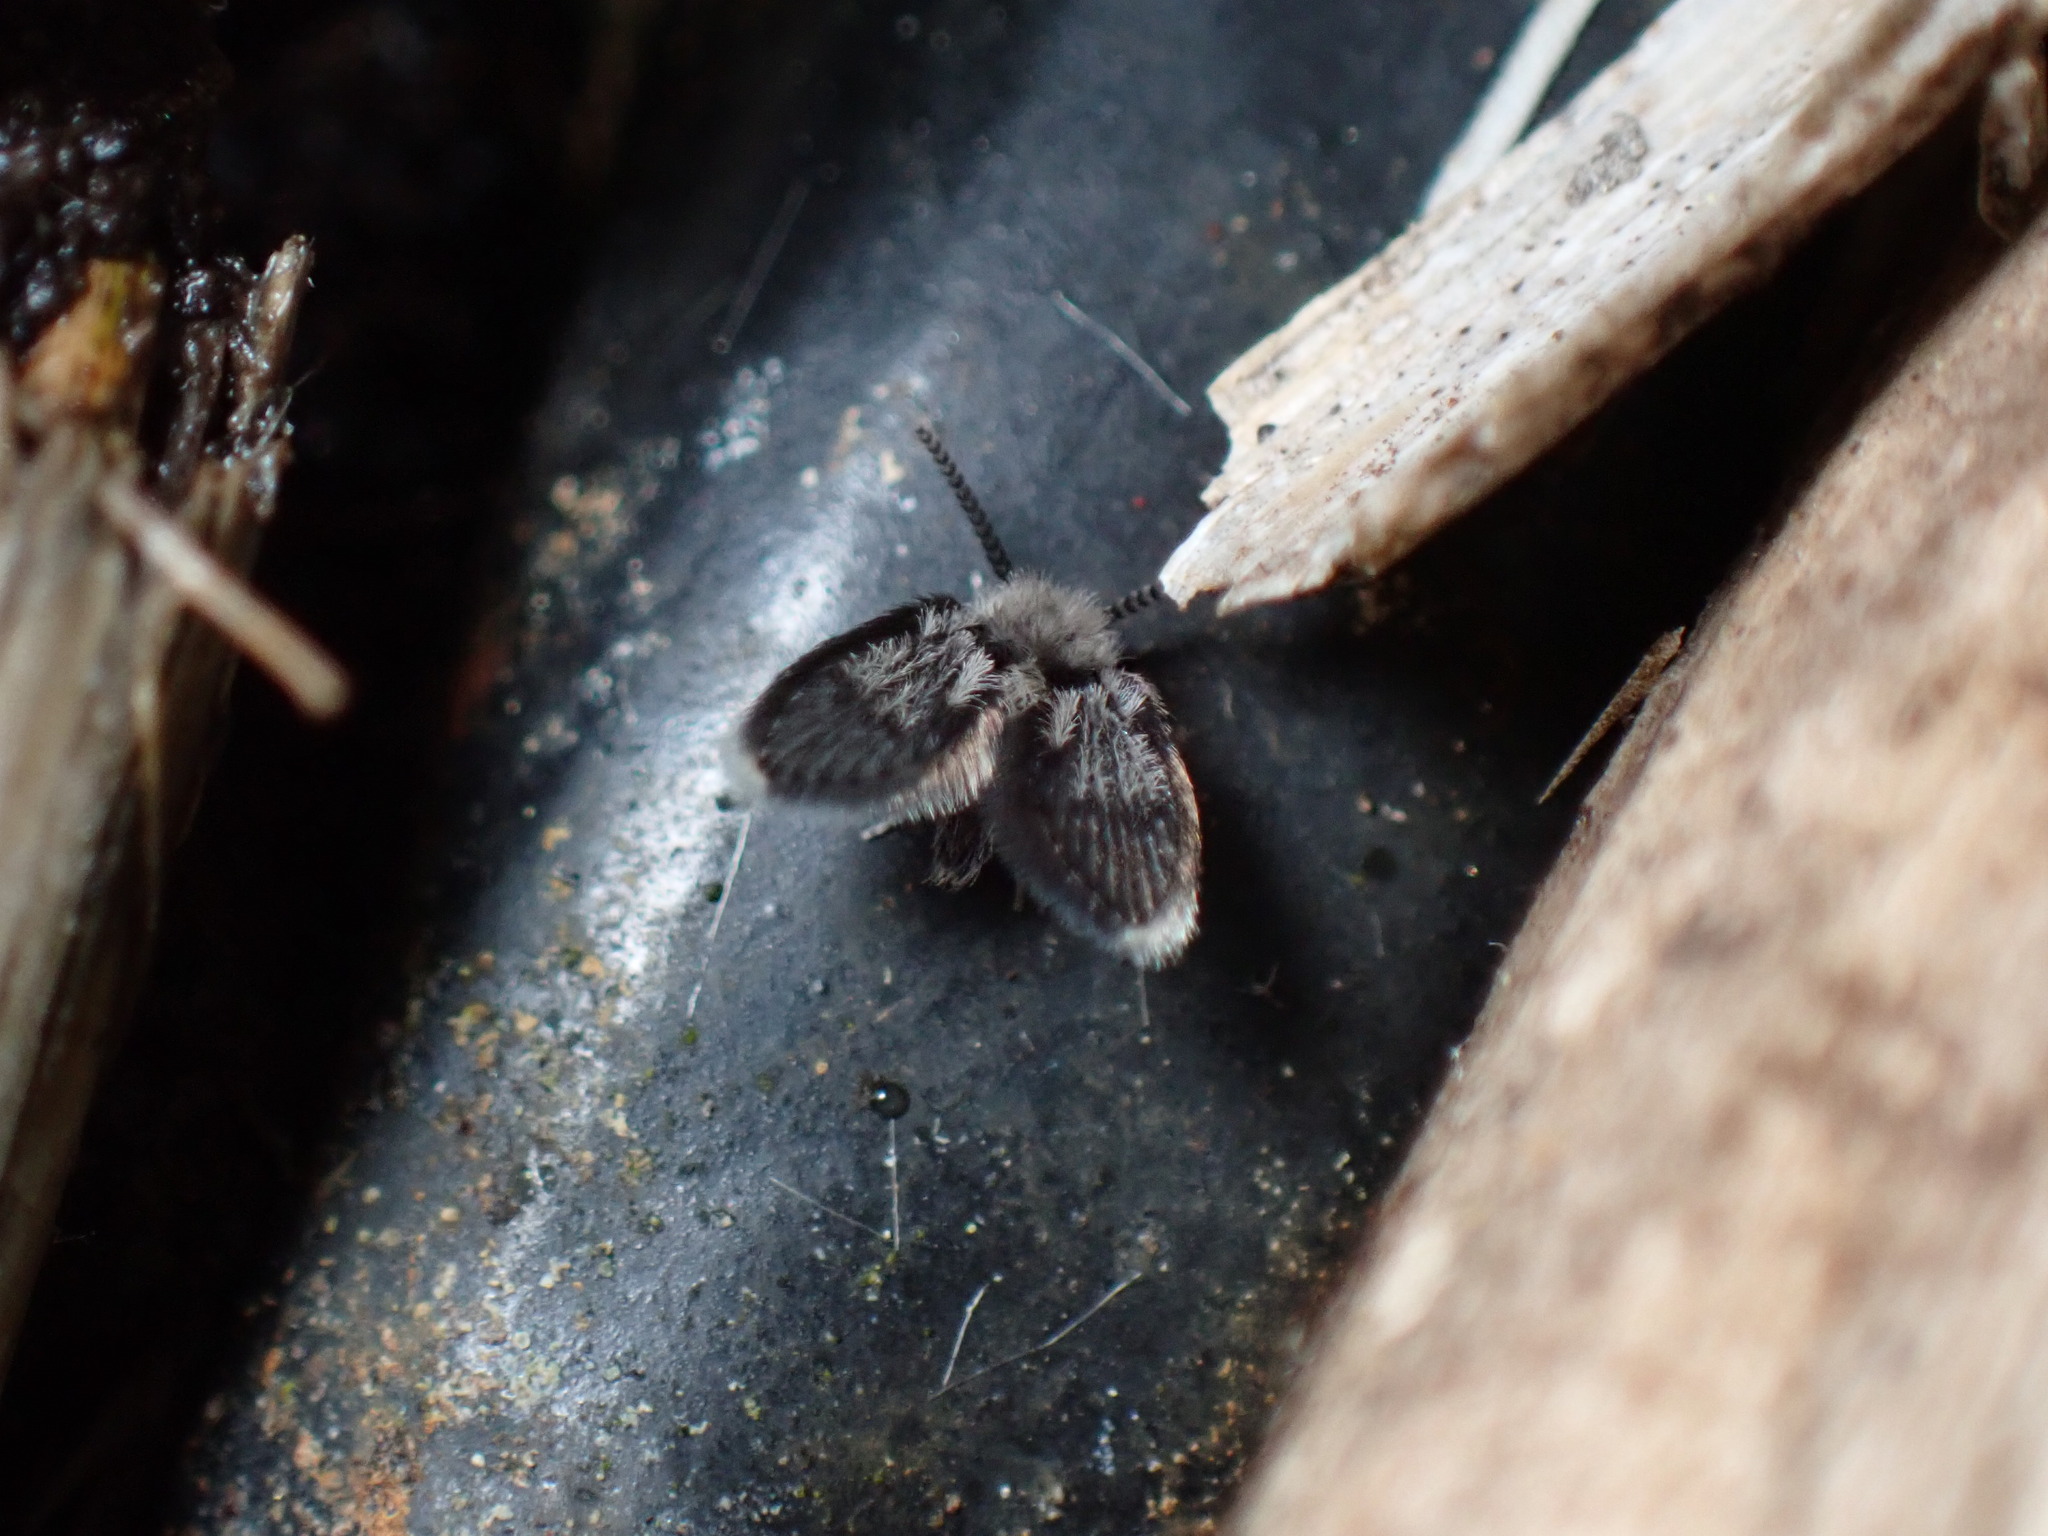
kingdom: Animalia
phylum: Arthropoda
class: Insecta
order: Diptera
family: Psychodidae
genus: Lepiseodina
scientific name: Lepiseodina
